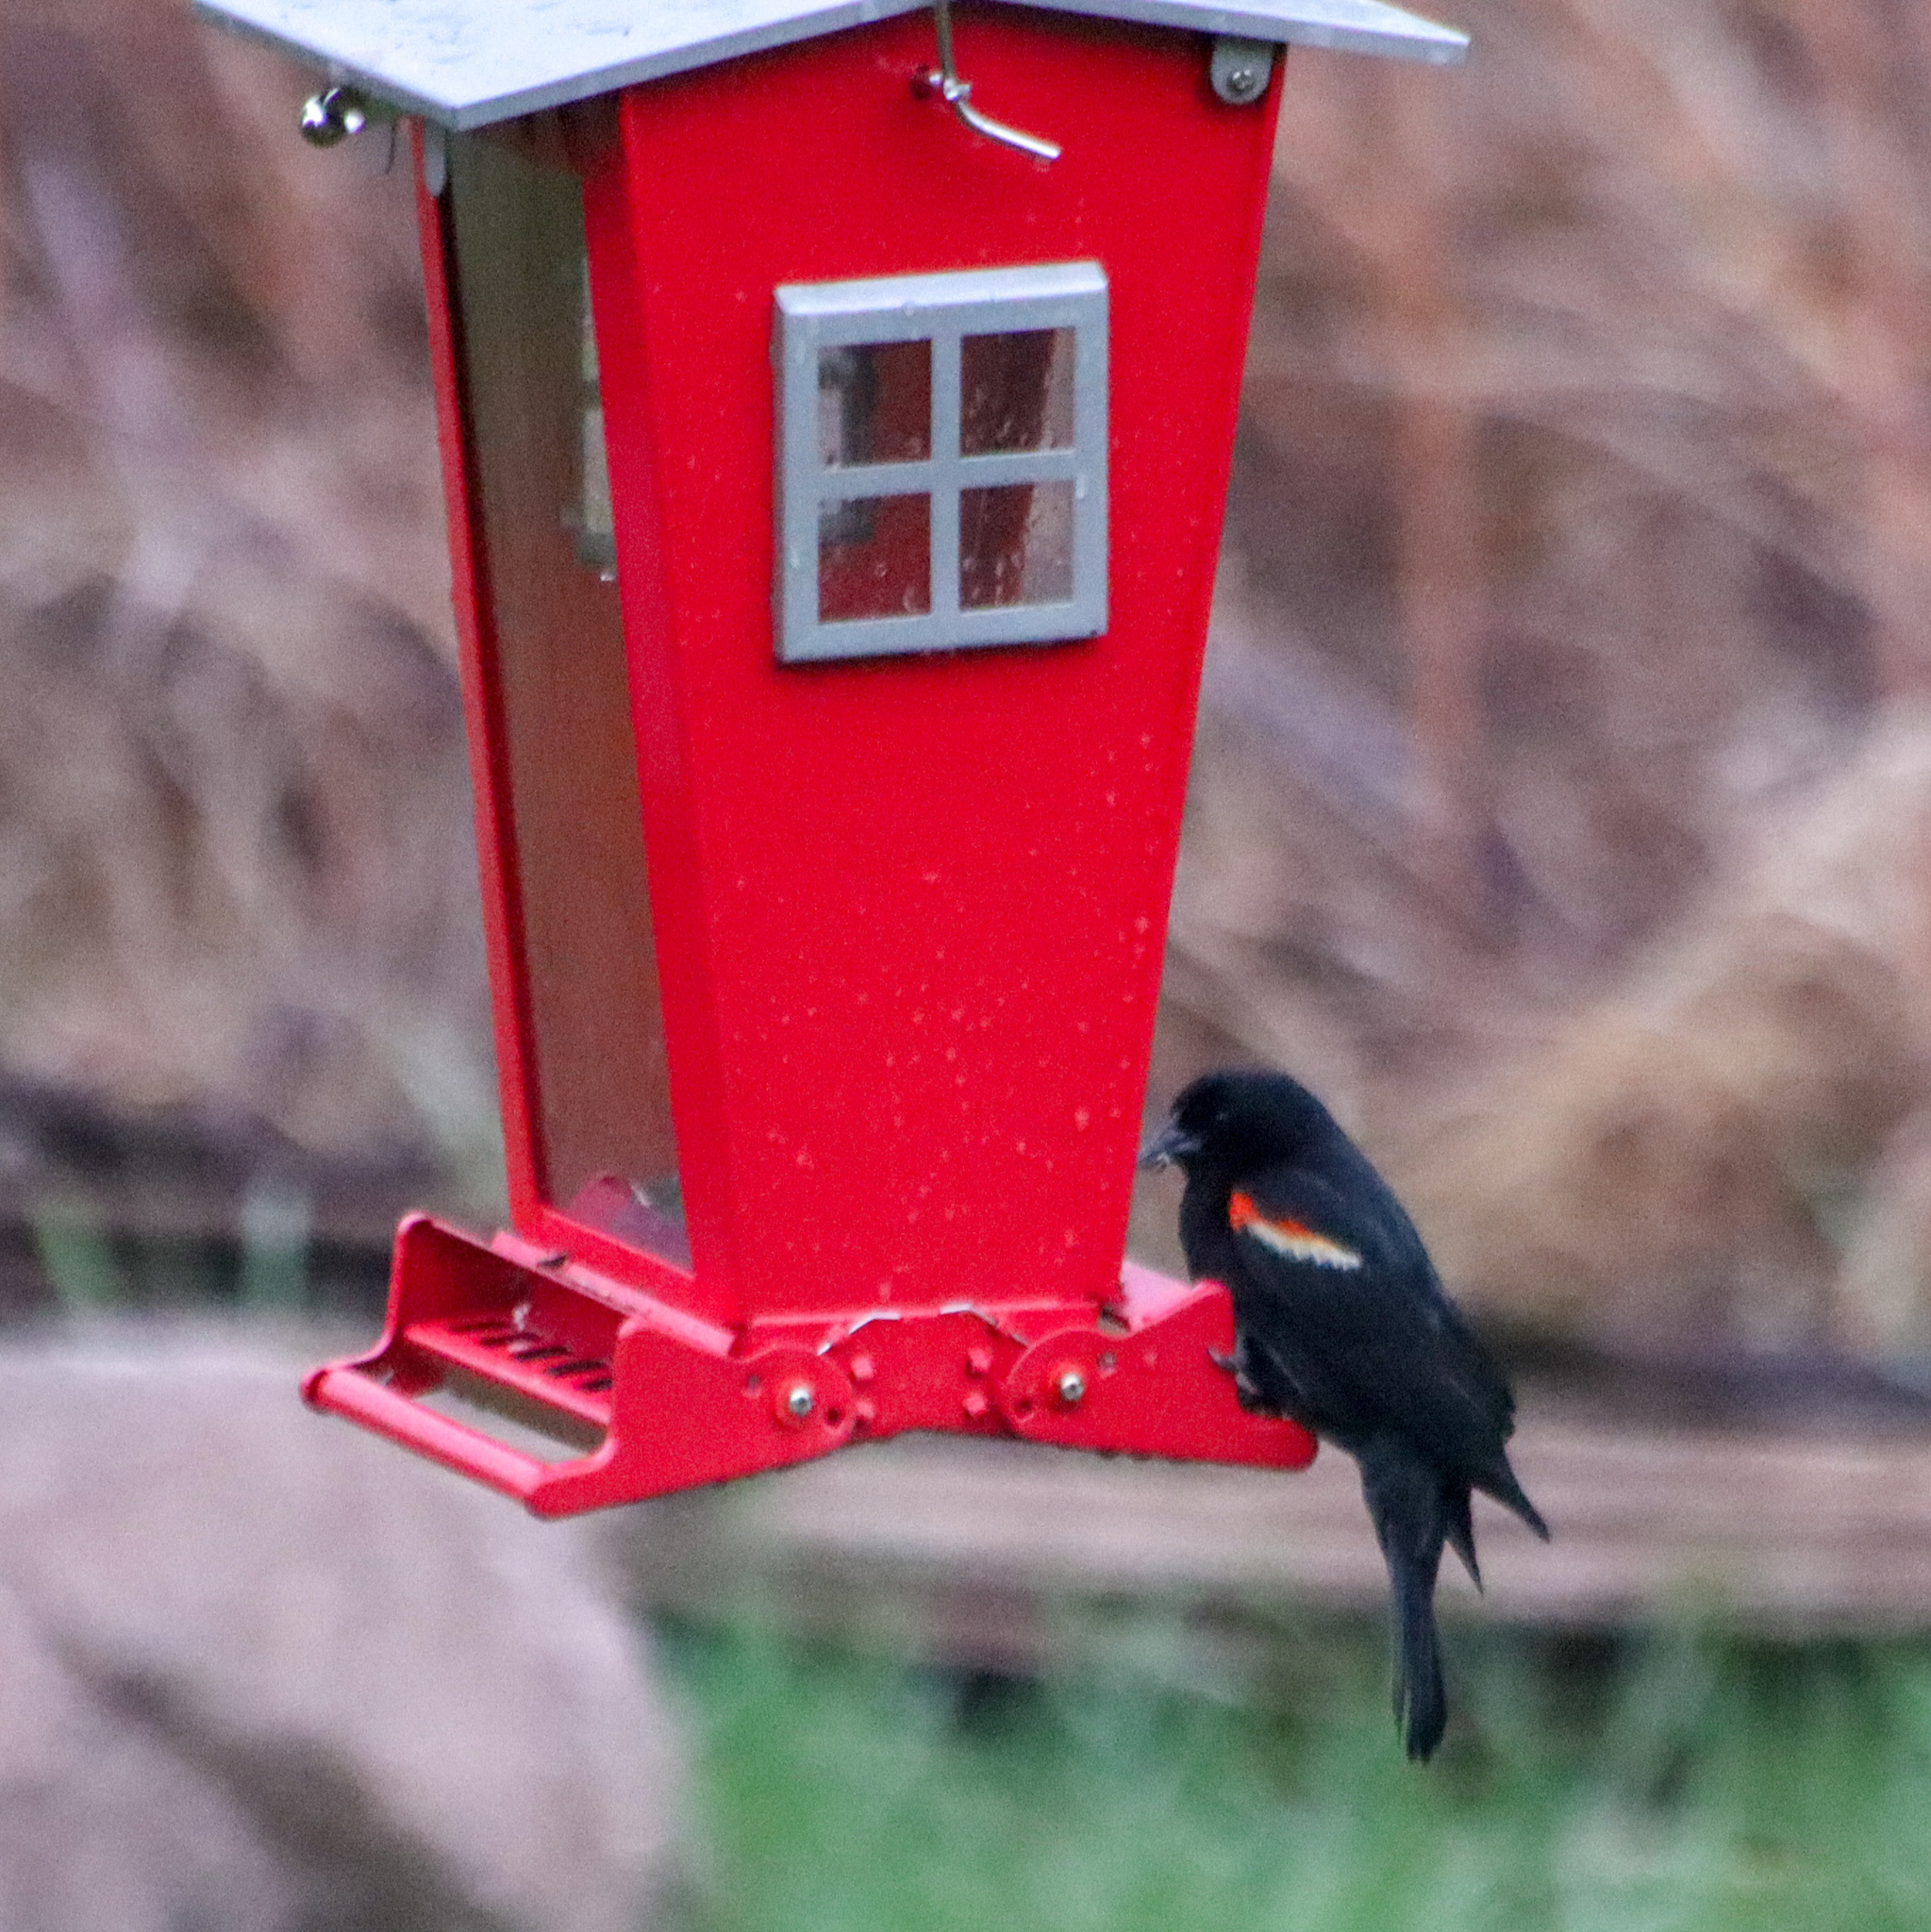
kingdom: Animalia
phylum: Chordata
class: Aves
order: Passeriformes
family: Icteridae
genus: Agelaius
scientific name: Agelaius phoeniceus
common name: Red-winged blackbird
